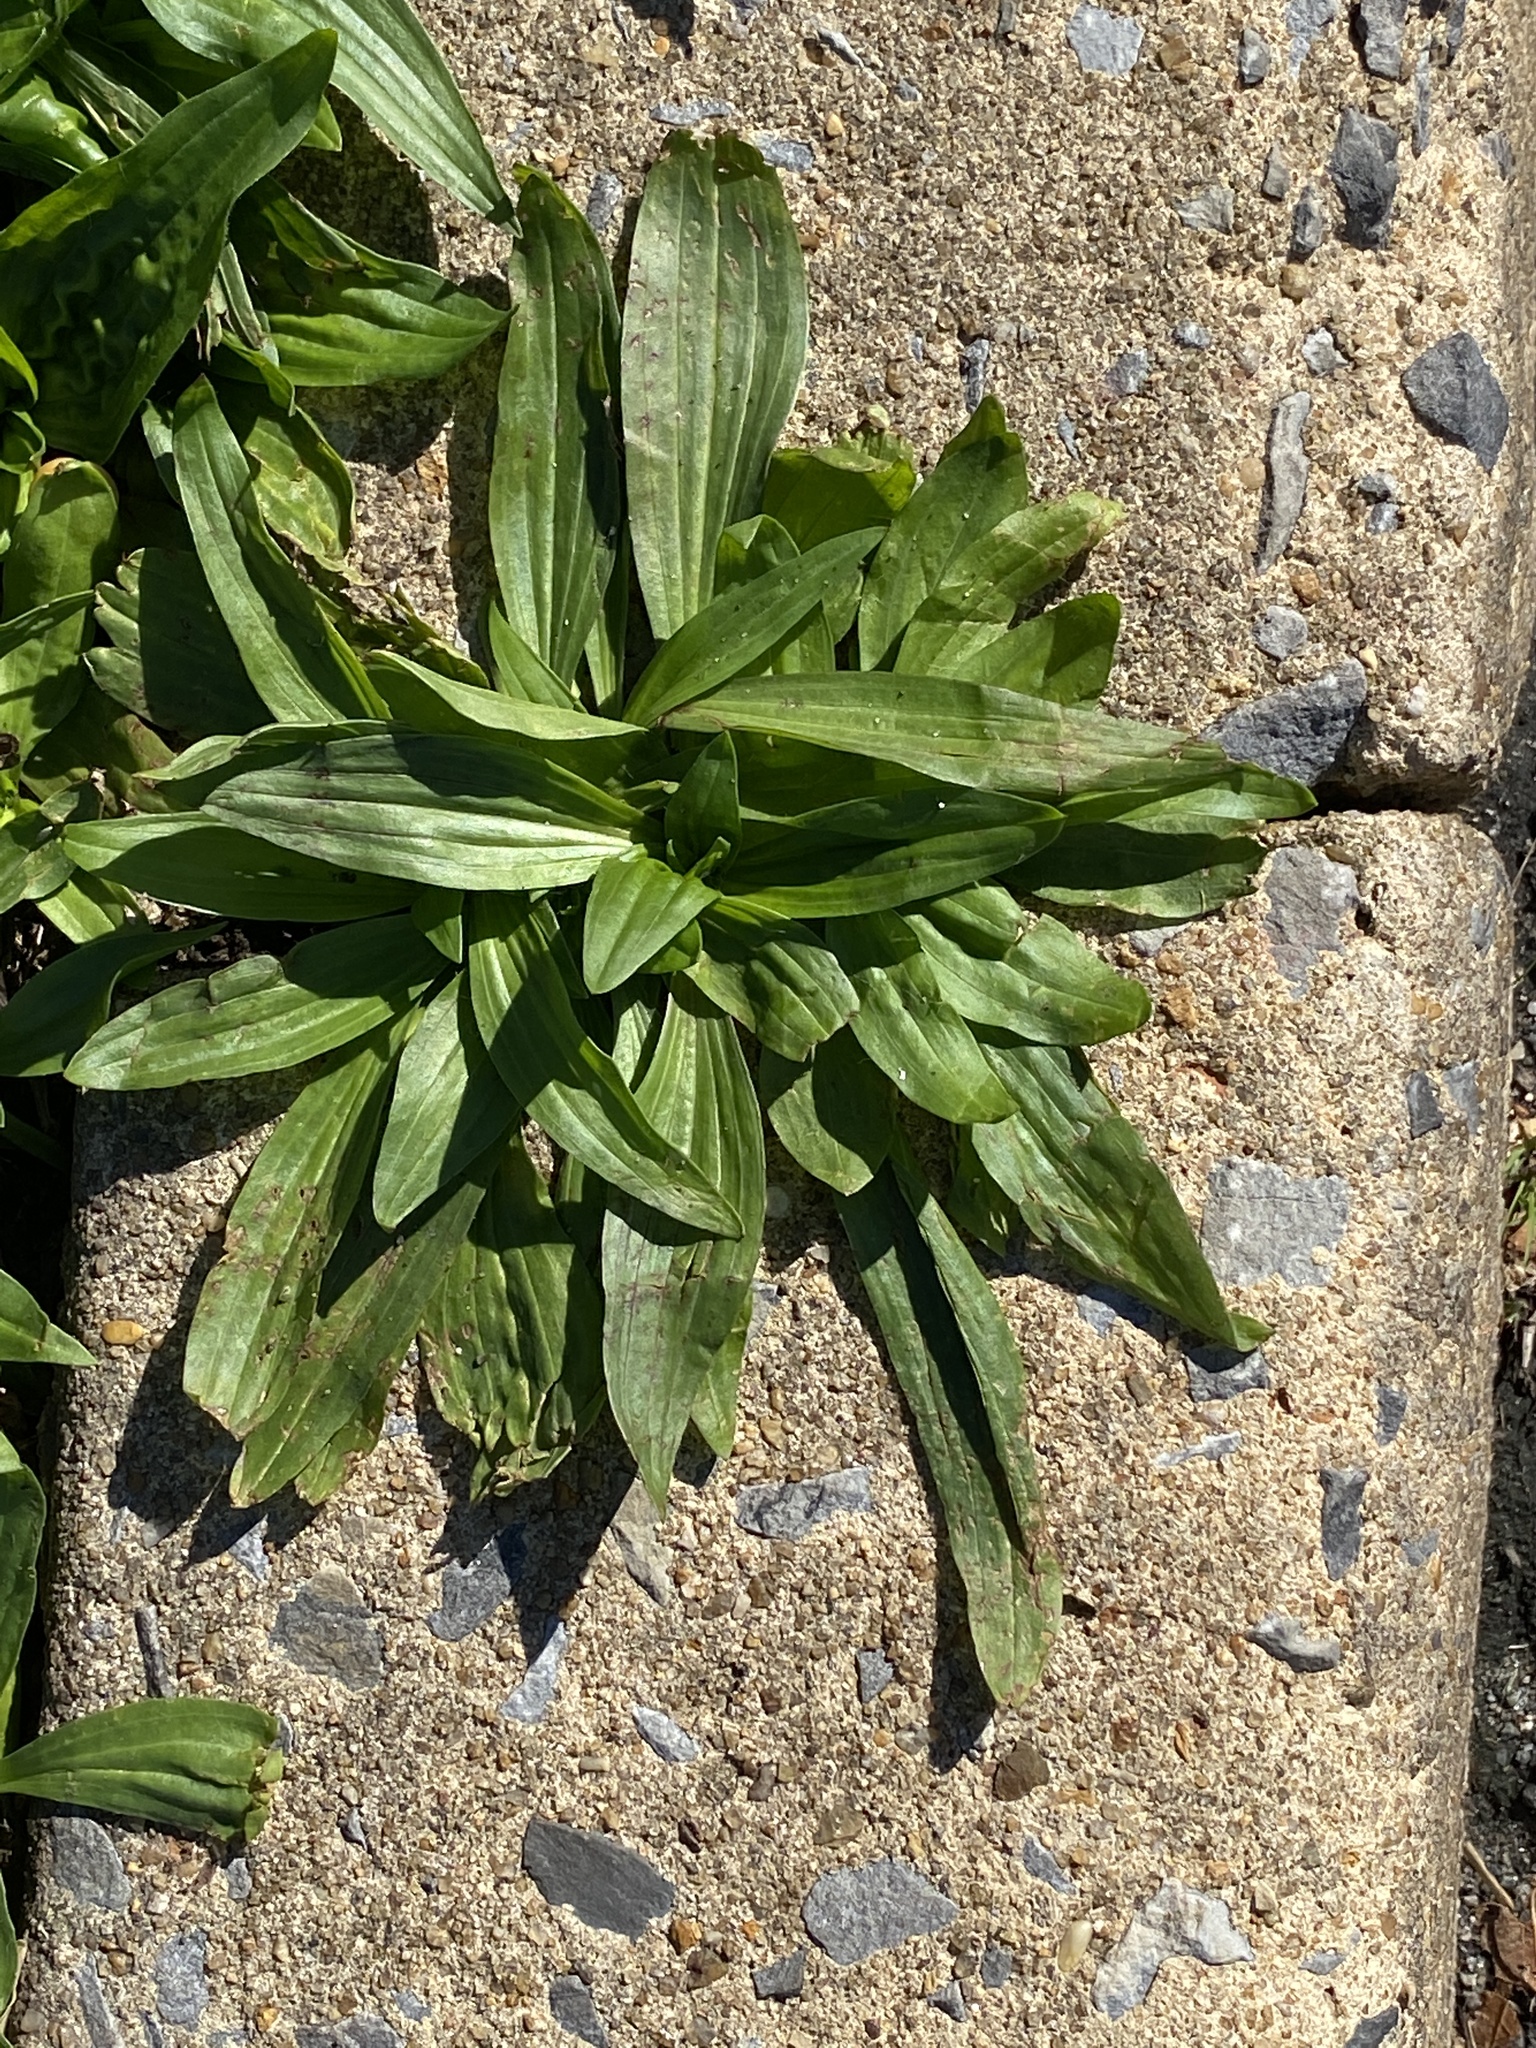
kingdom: Plantae
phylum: Tracheophyta
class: Magnoliopsida
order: Lamiales
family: Plantaginaceae
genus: Plantago
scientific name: Plantago lanceolata
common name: Ribwort plantain
